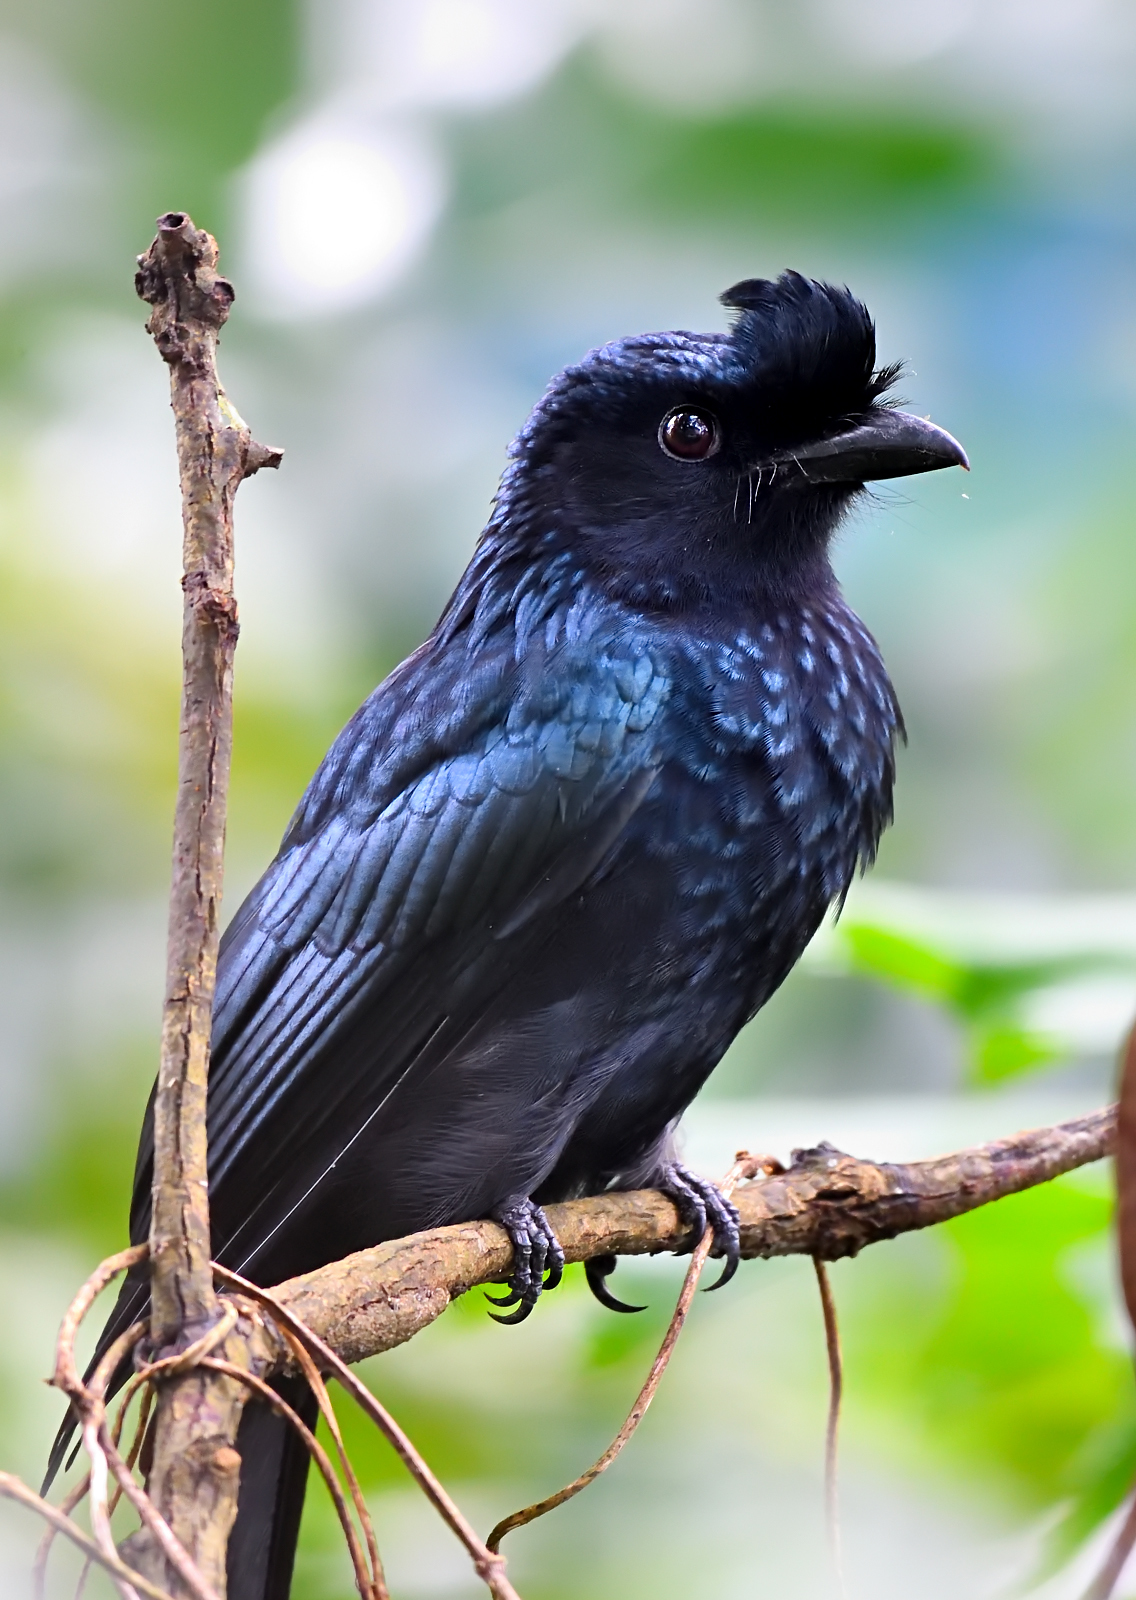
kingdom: Animalia
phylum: Chordata
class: Aves
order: Passeriformes
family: Dicruridae
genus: Dicrurus
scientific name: Dicrurus paradiseus
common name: Greater racket-tailed drongo
